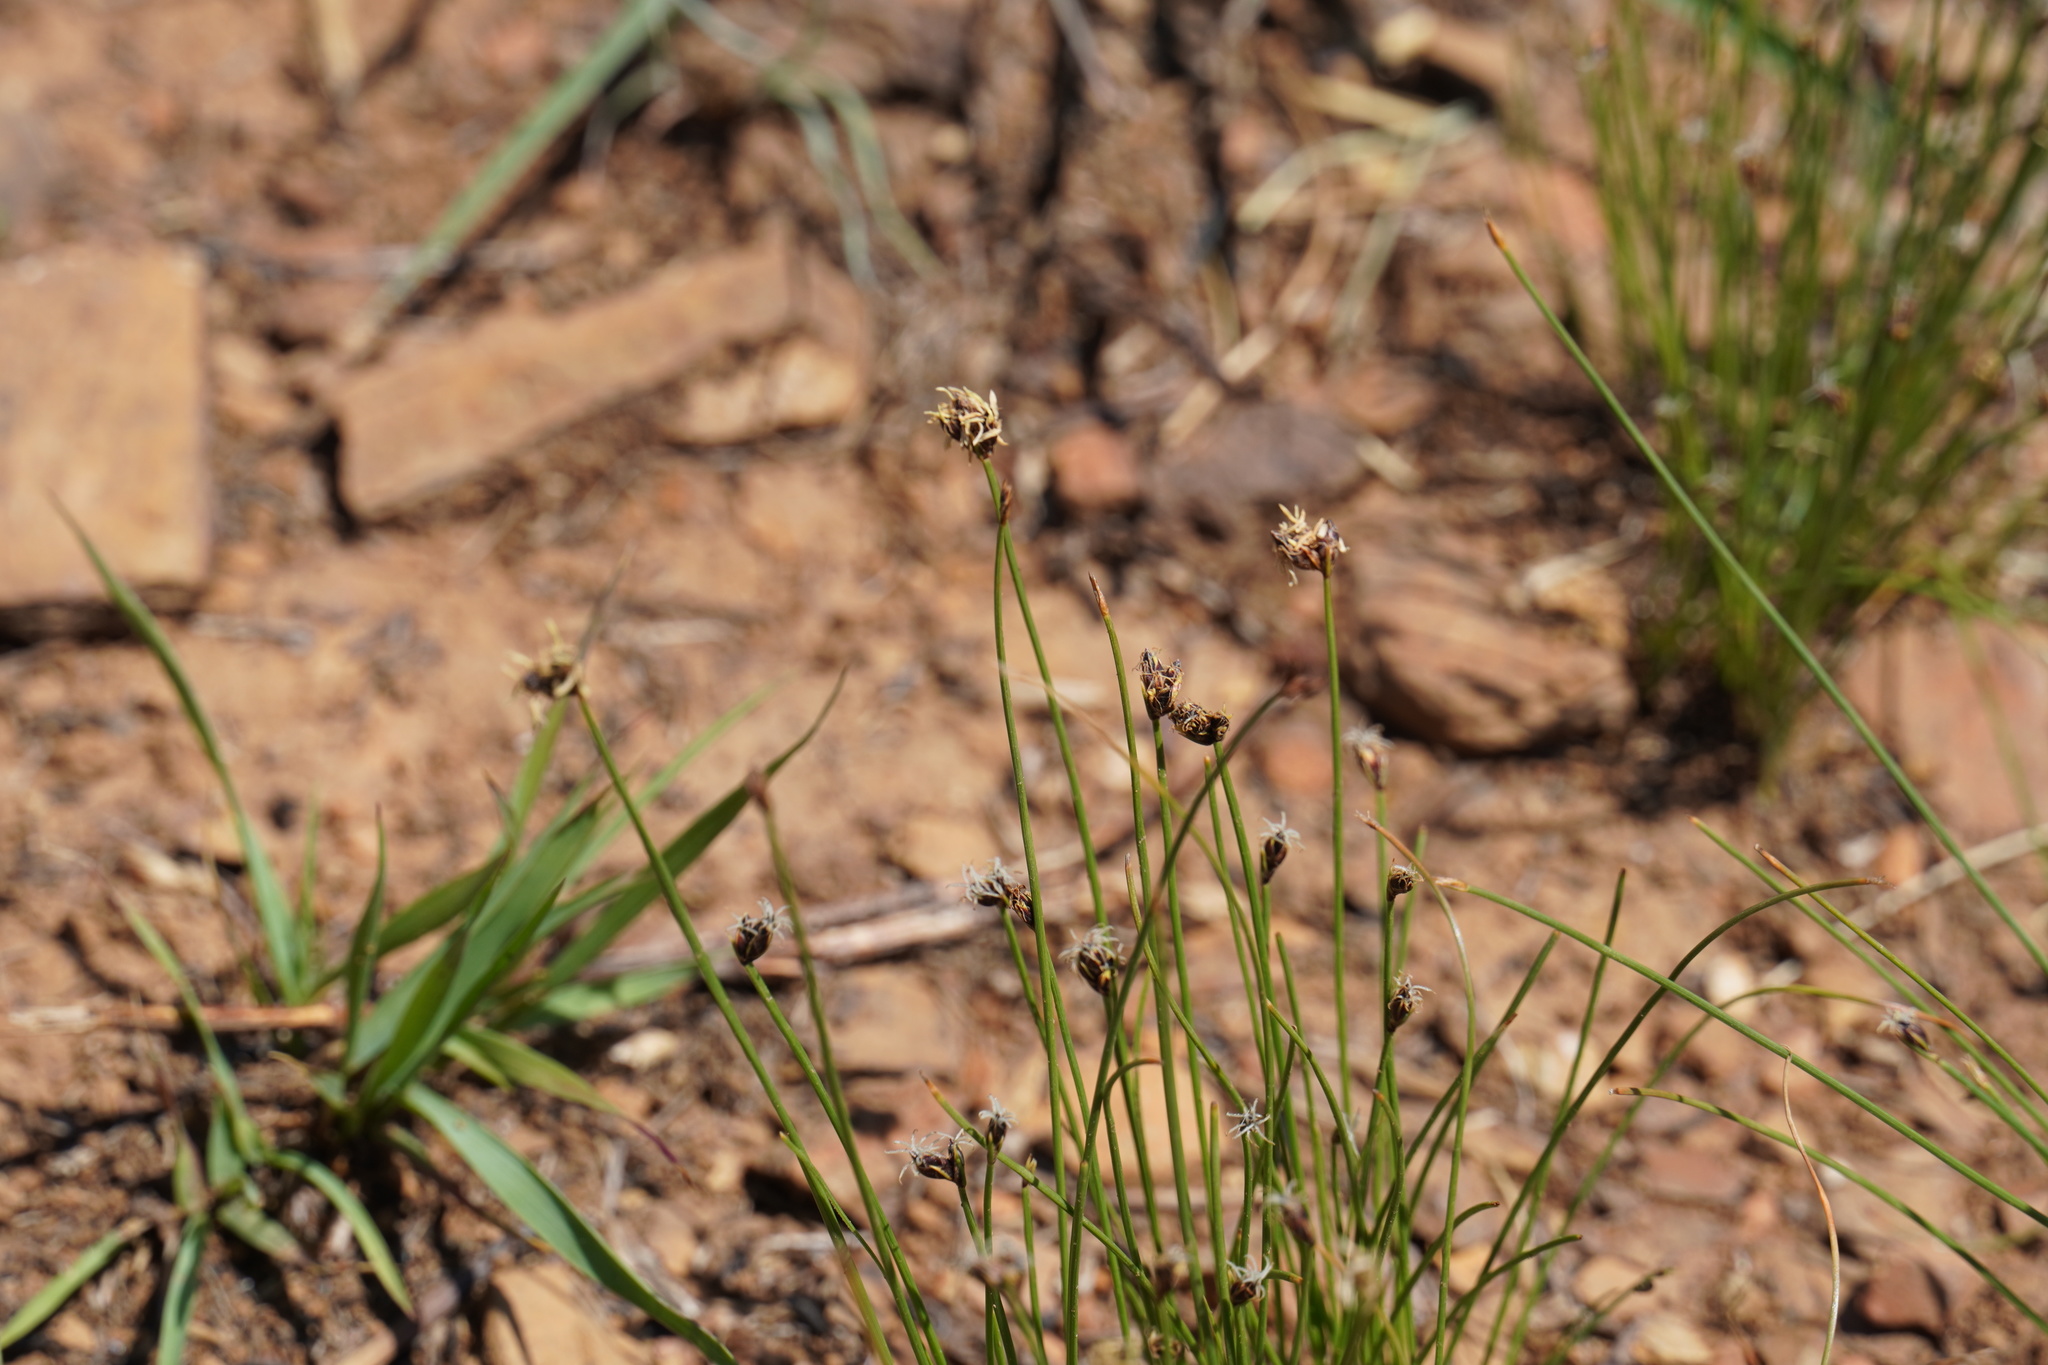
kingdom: Plantae
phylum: Tracheophyta
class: Liliopsida
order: Poales
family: Cyperaceae
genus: Bulbostylis
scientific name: Bulbostylis burchellii
